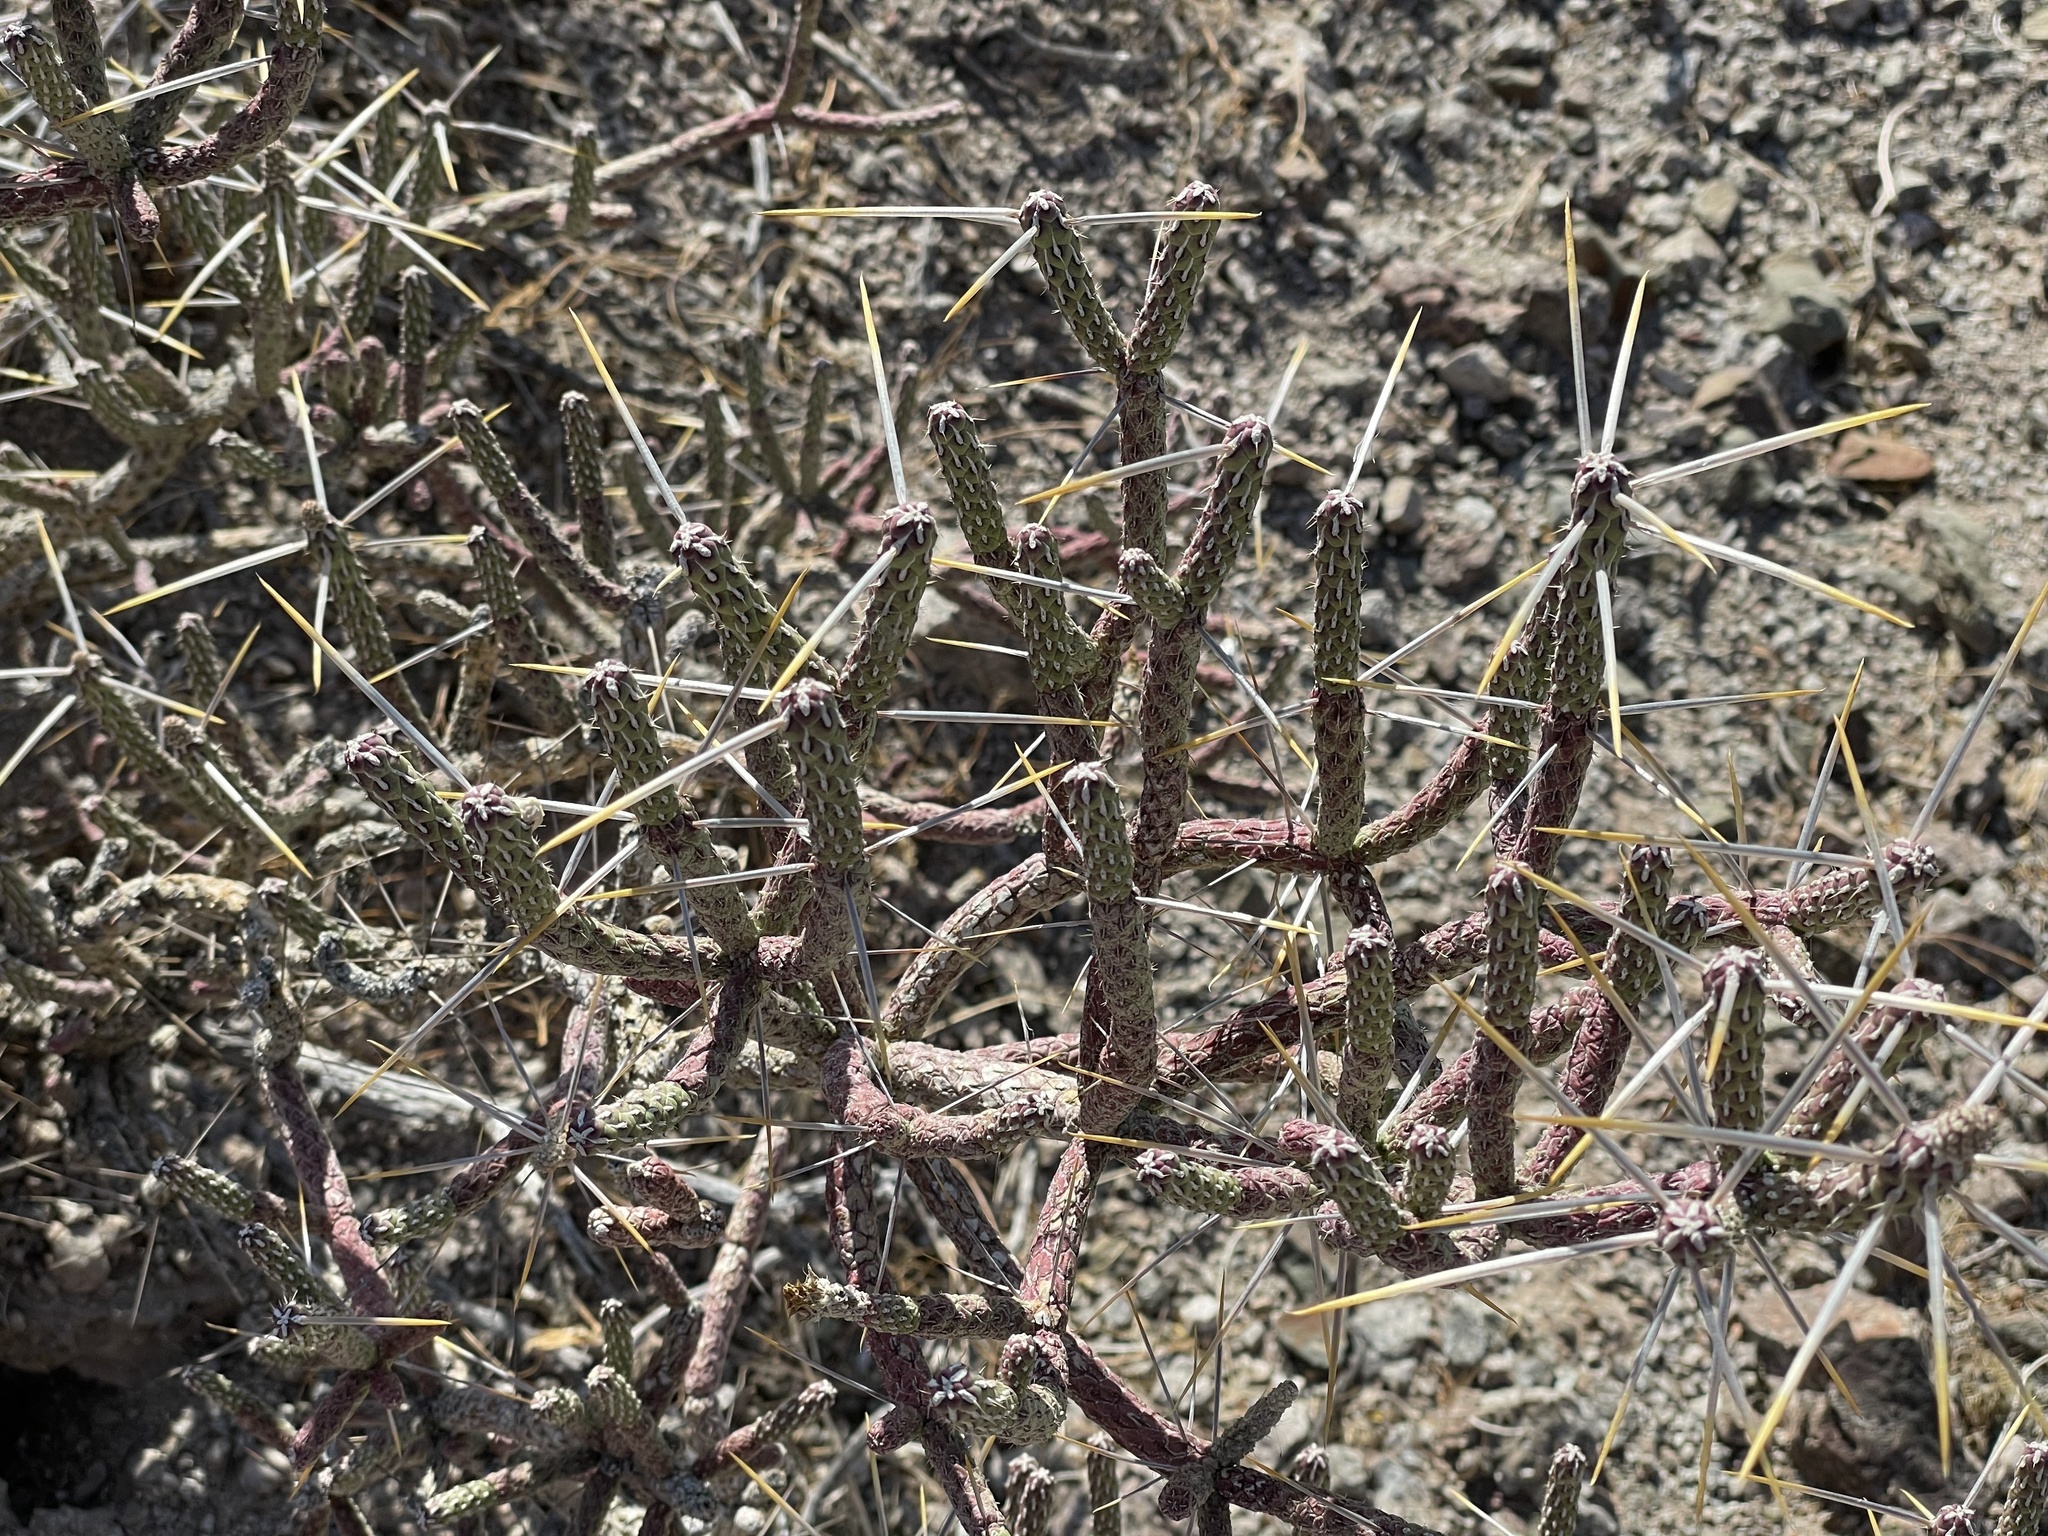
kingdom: Plantae
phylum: Tracheophyta
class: Magnoliopsida
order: Caryophyllales
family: Cactaceae
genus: Cylindropuntia
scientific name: Cylindropuntia ramosissima
